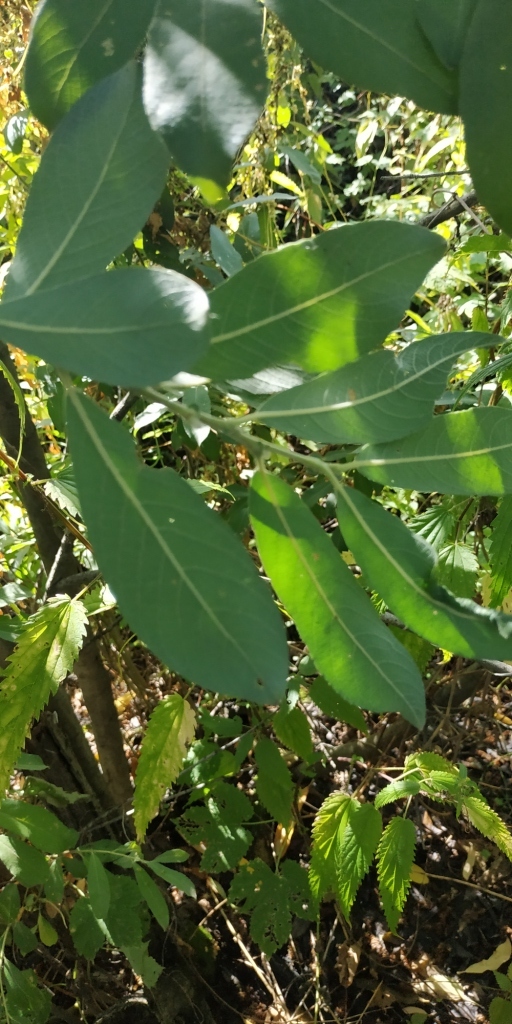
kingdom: Plantae
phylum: Tracheophyta
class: Magnoliopsida
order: Malpighiales
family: Salicaceae
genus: Salix
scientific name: Salix cinerea
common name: Common sallow
